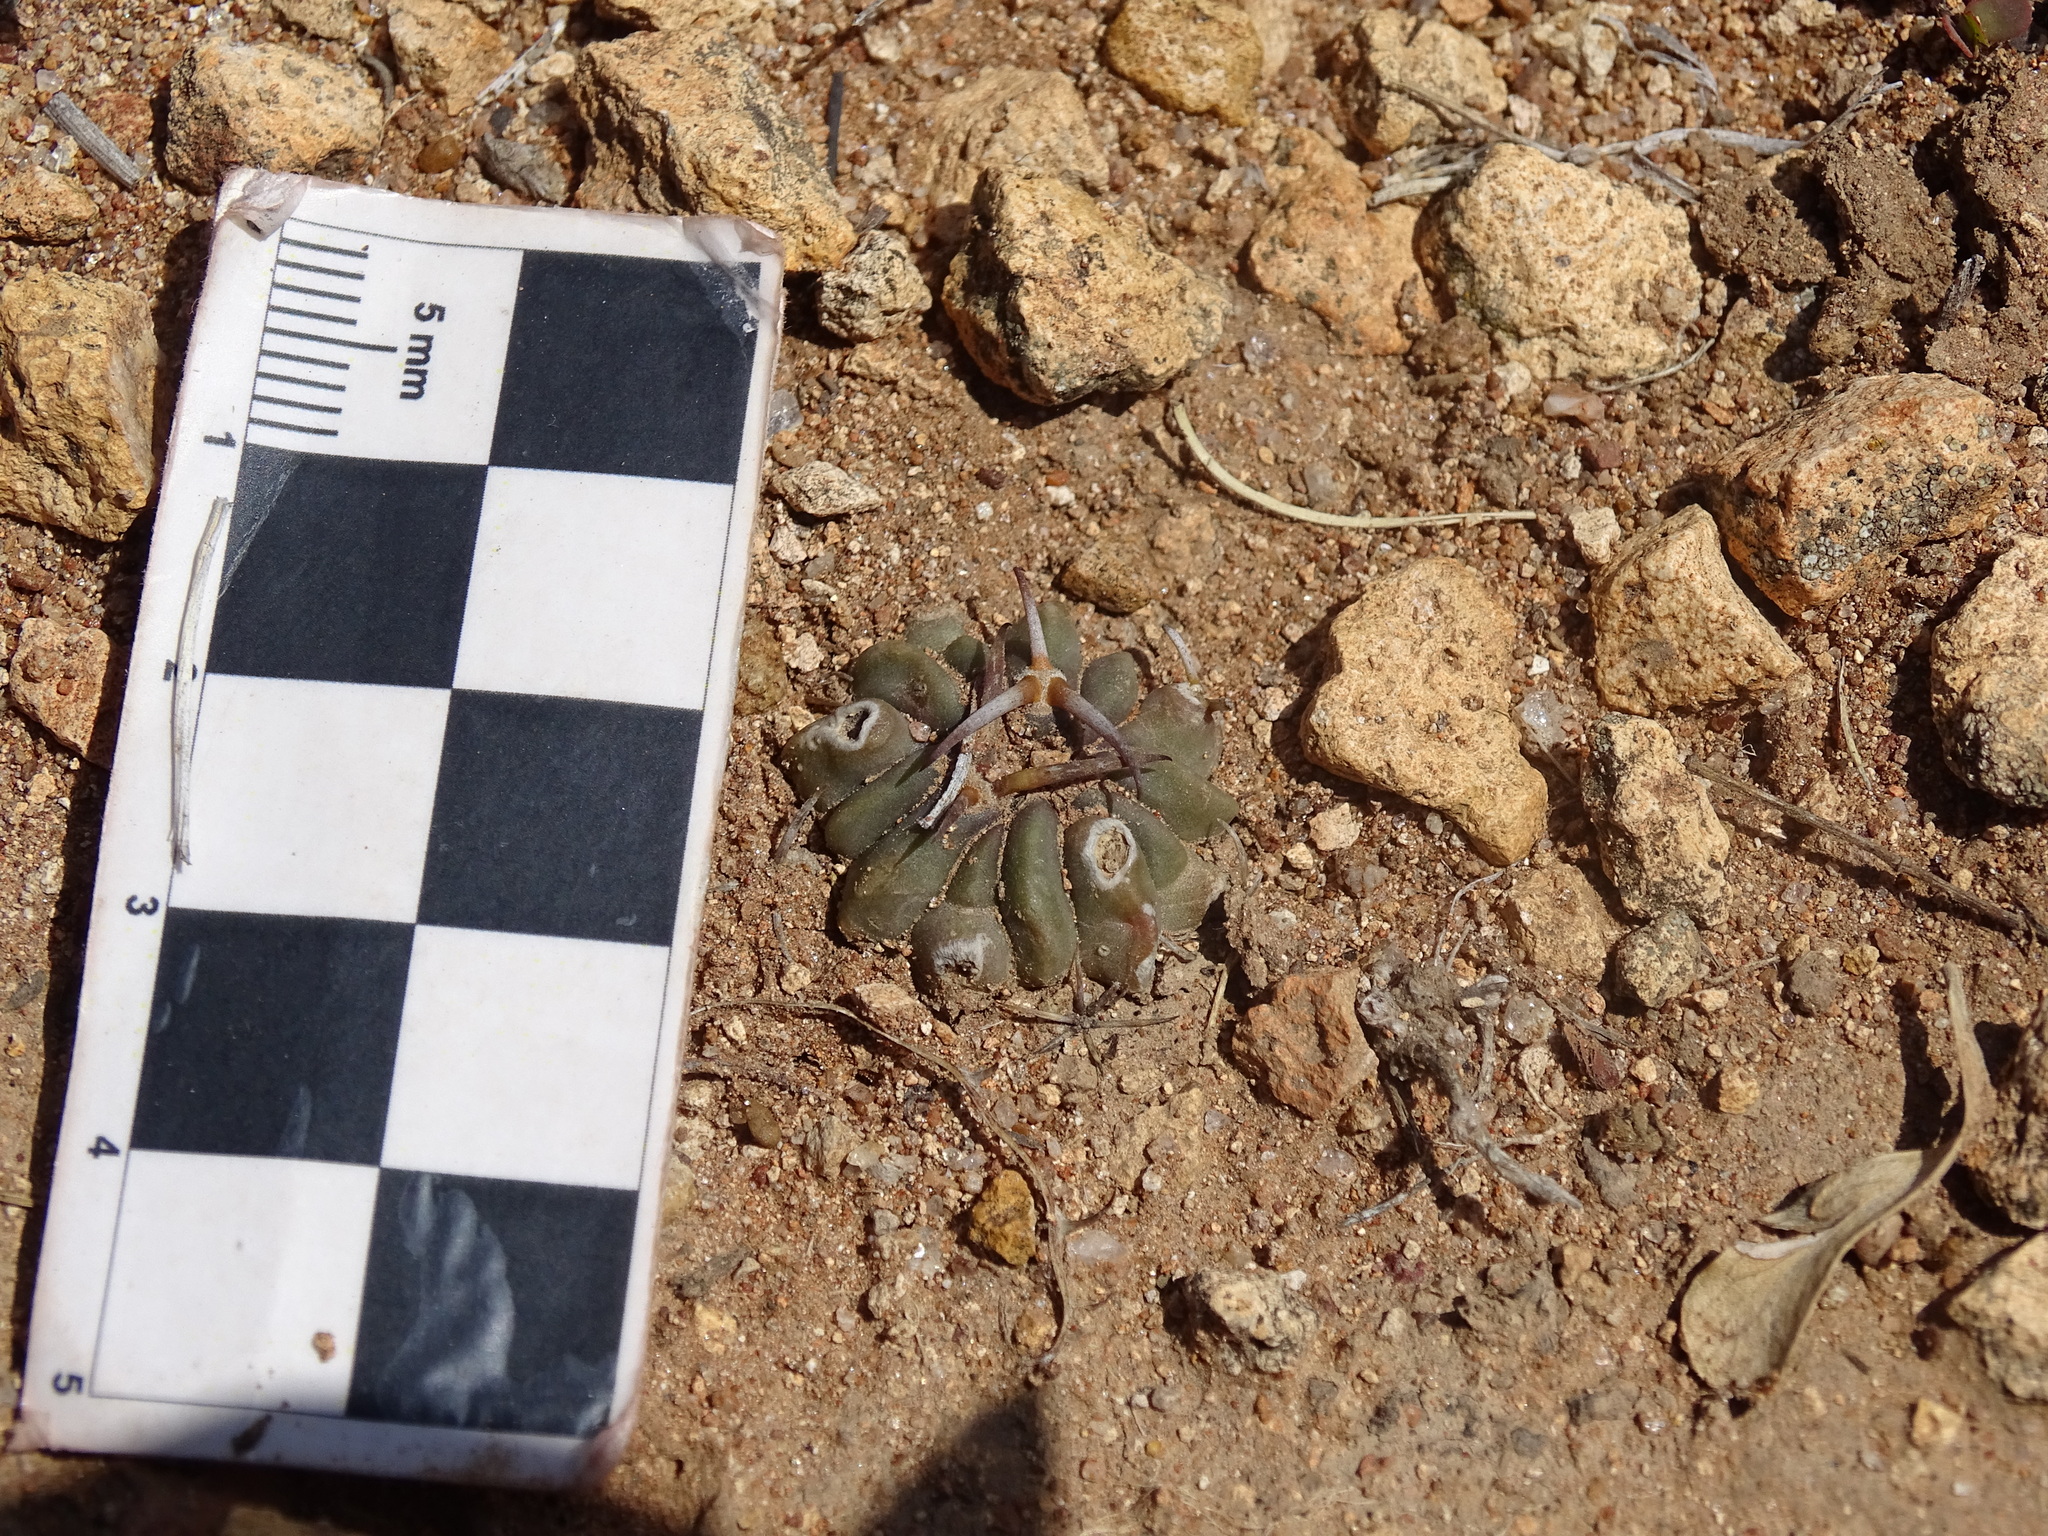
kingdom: Plantae
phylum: Tracheophyta
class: Magnoliopsida
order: Caryophyllales
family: Cactaceae
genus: Stenocactus
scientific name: Stenocactus coptonogonus
